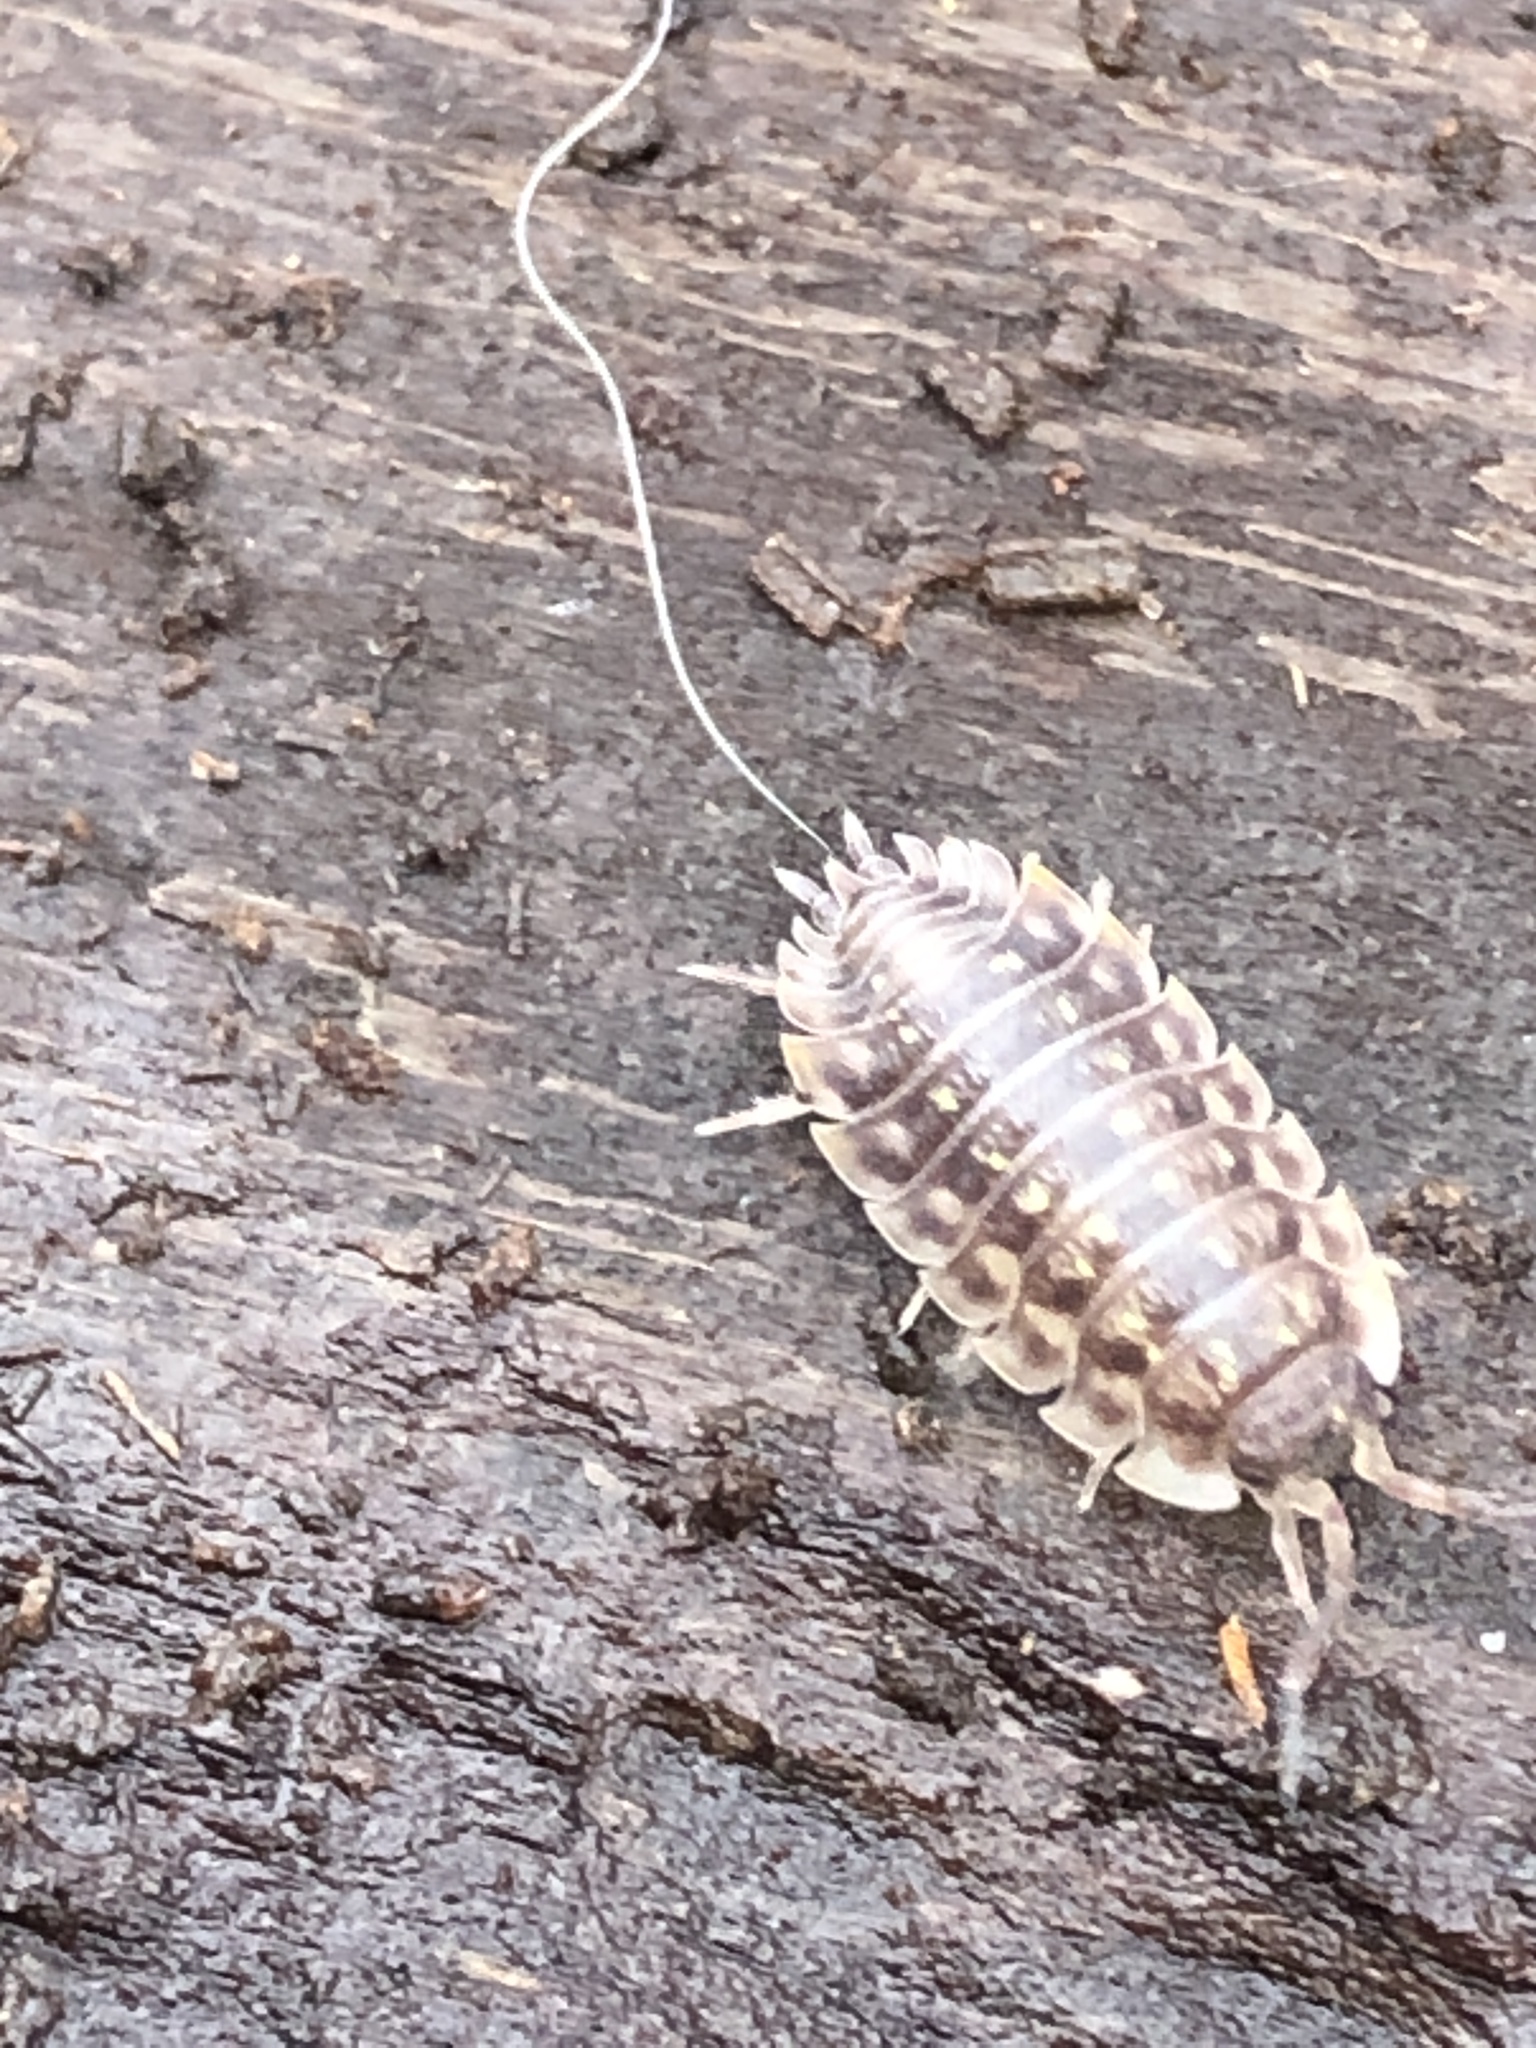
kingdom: Animalia
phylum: Arthropoda
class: Malacostraca
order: Isopoda
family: Oniscidae
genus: Oniscus
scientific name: Oniscus asellus
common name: Common shiny woodlouse
